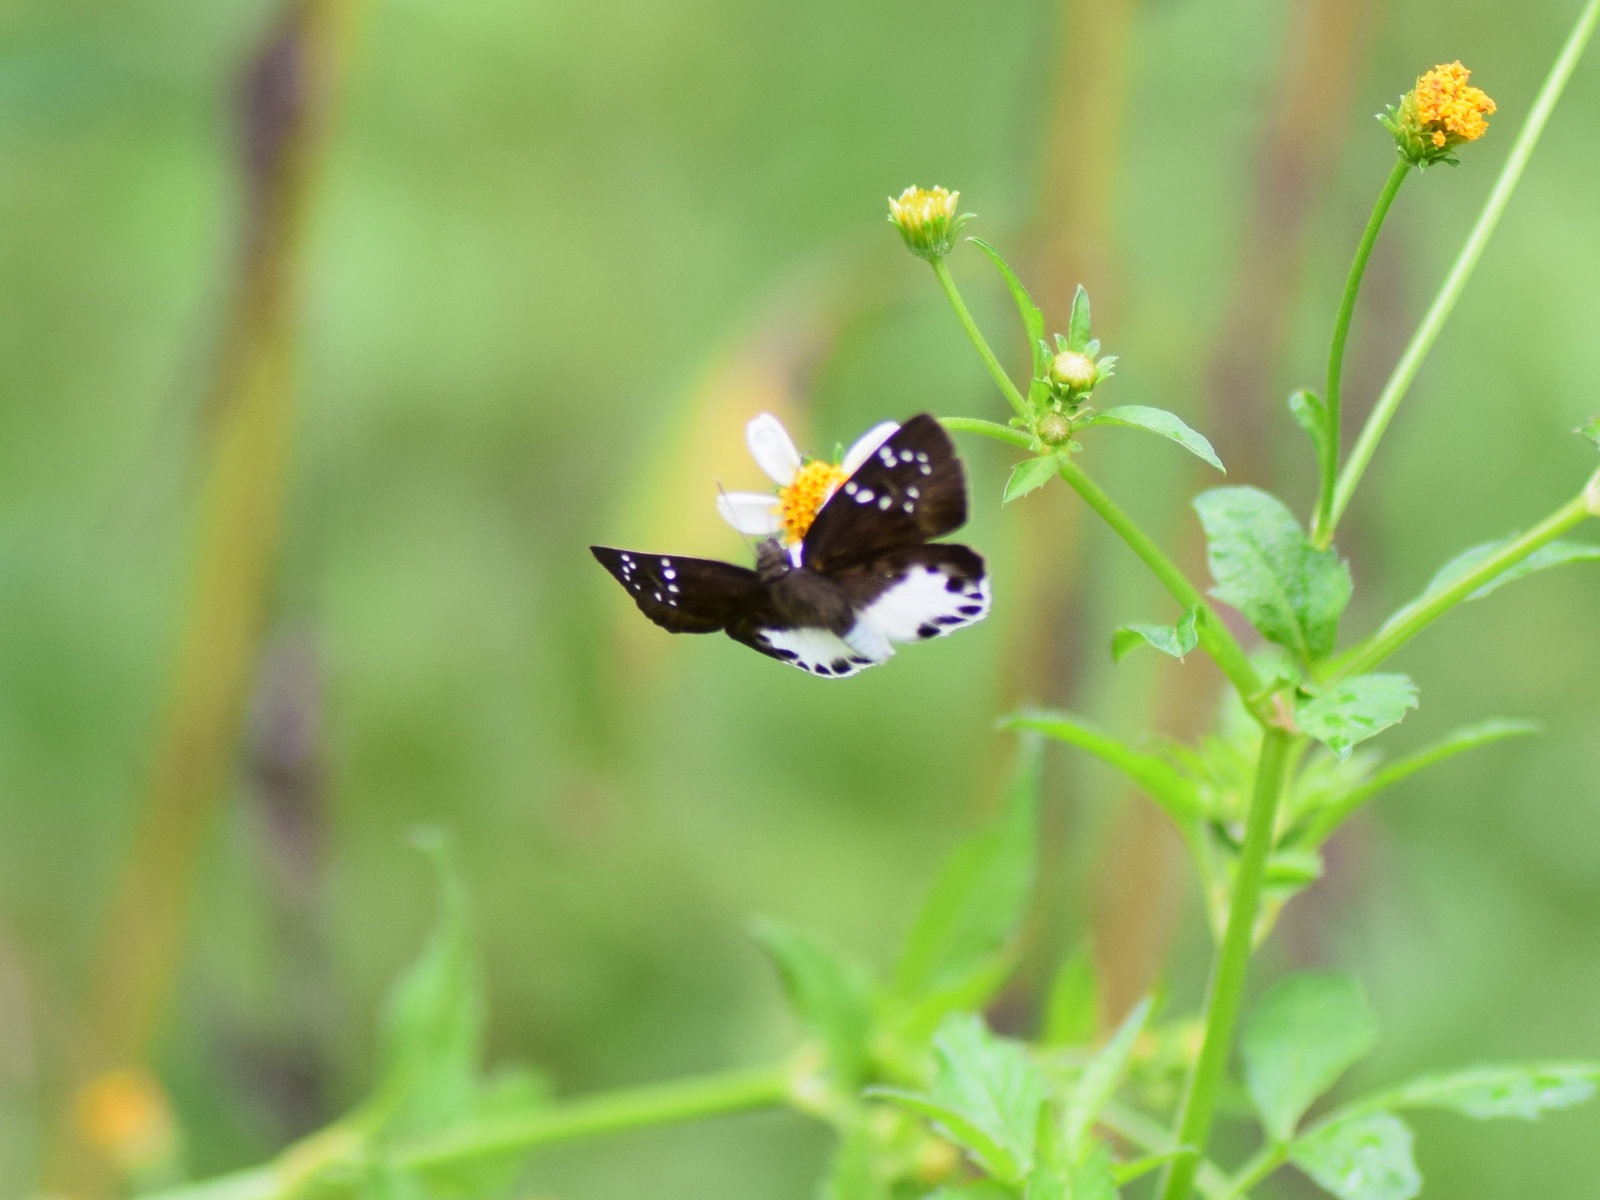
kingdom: Animalia
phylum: Arthropoda
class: Insecta
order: Lepidoptera
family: Hesperiidae
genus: Tagiades
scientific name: Tagiades litigiosa
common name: Water snow flat
